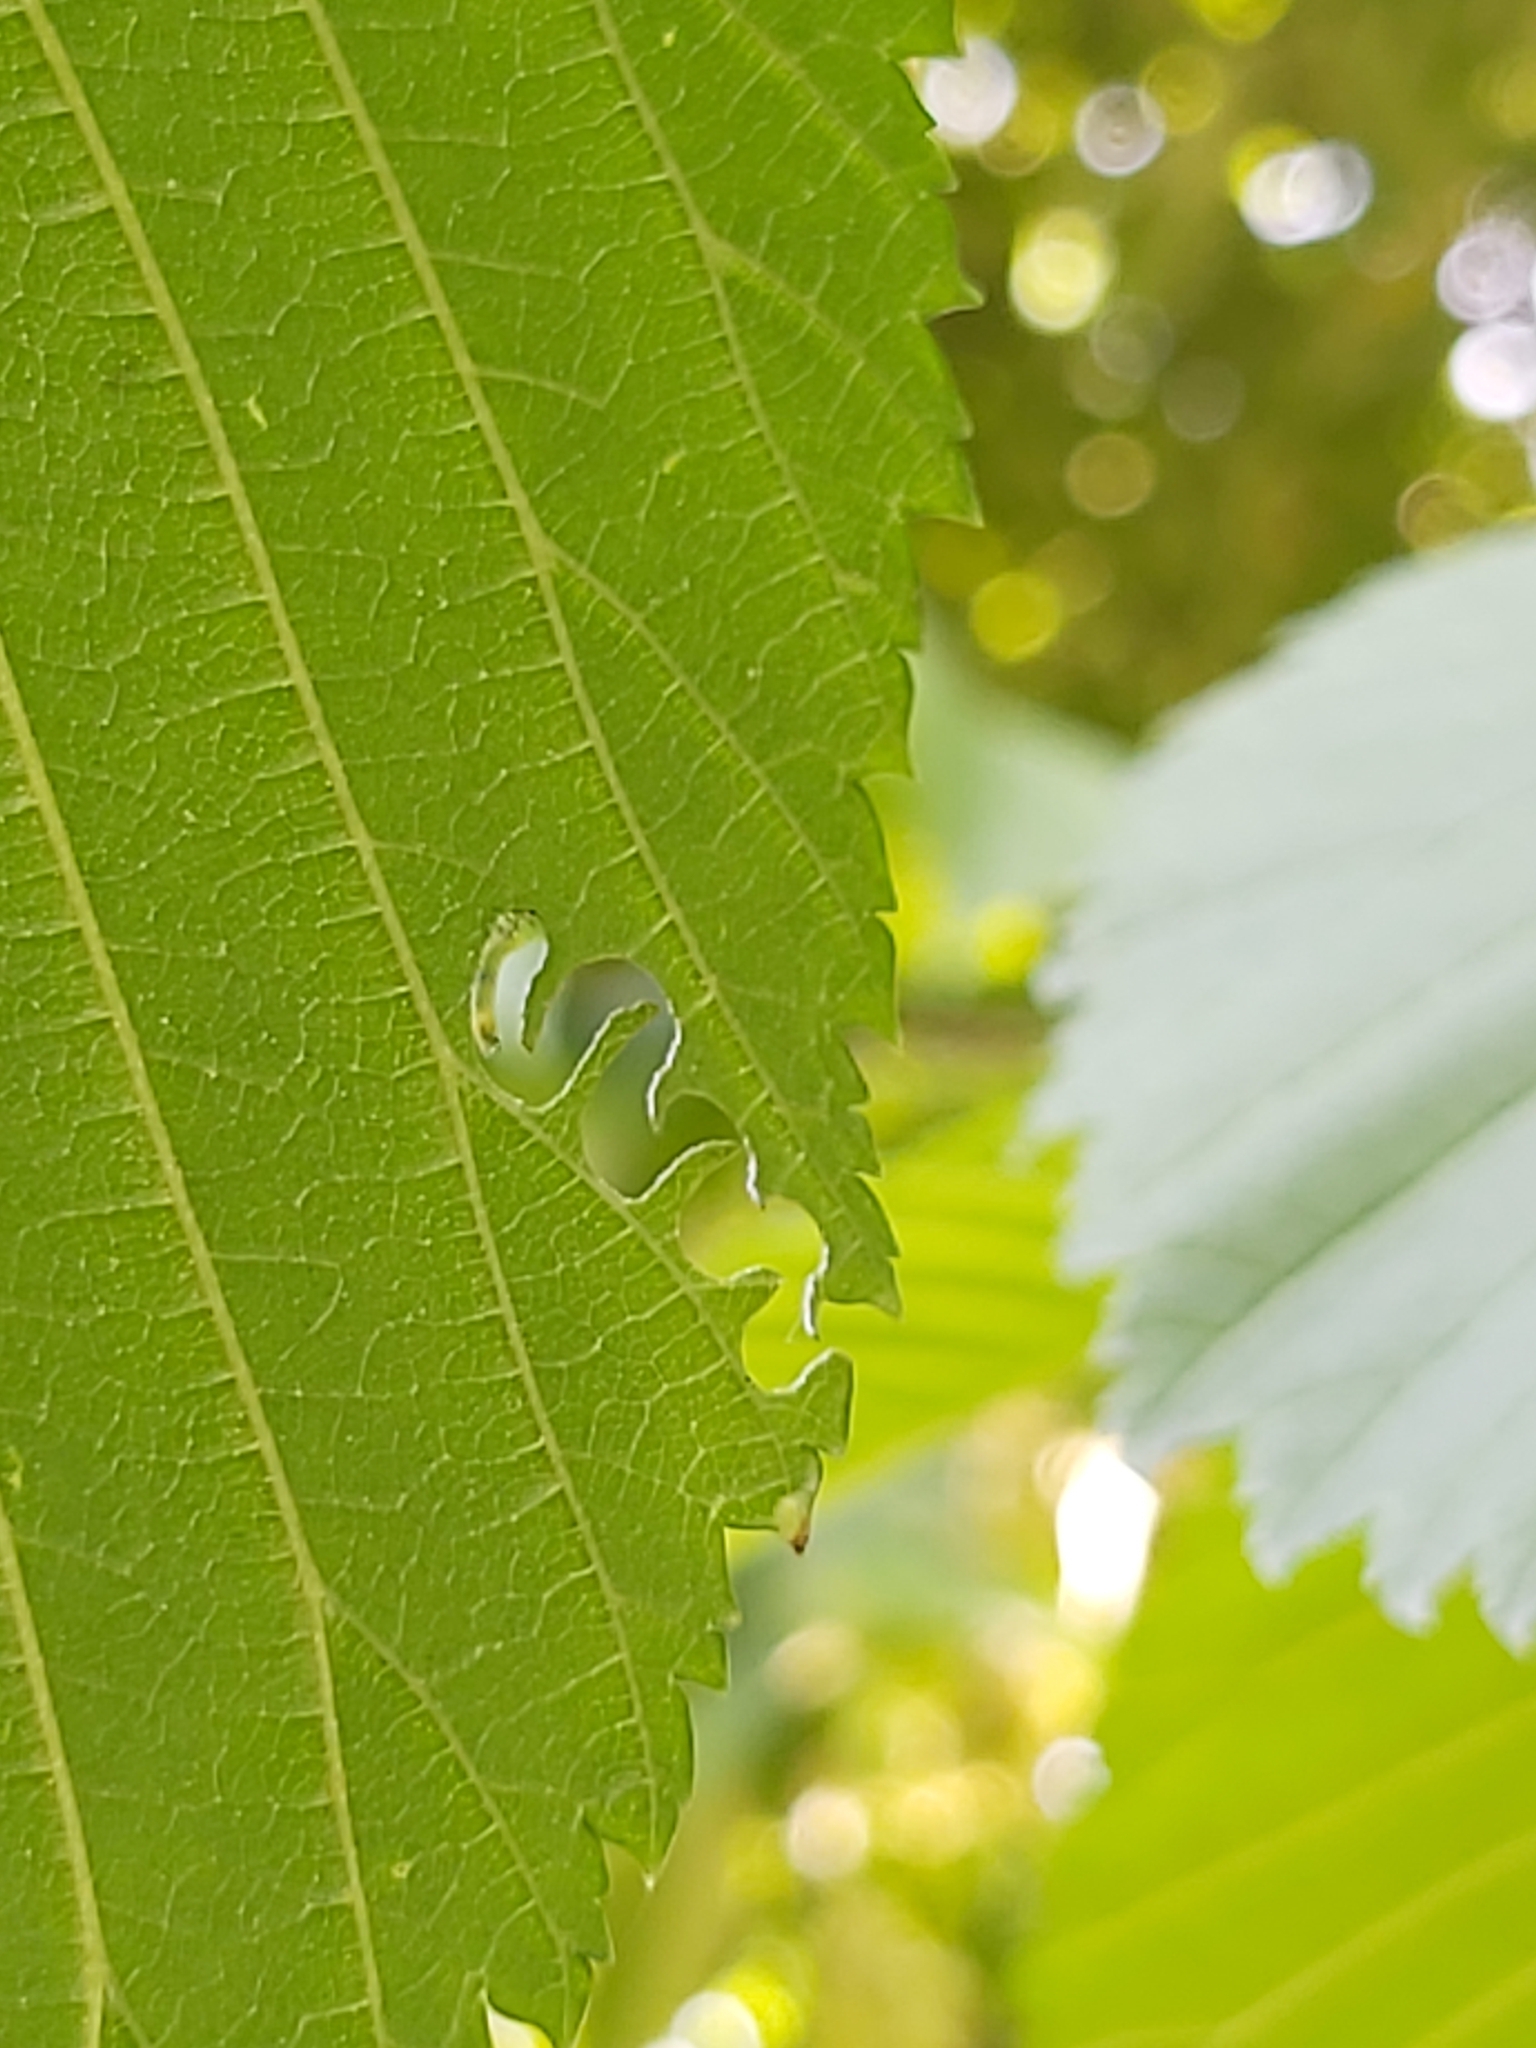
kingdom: Animalia
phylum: Arthropoda
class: Insecta
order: Hymenoptera
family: Argidae
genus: Aproceros
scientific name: Aproceros leucopoda
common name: Zig-zag elm sawfly
